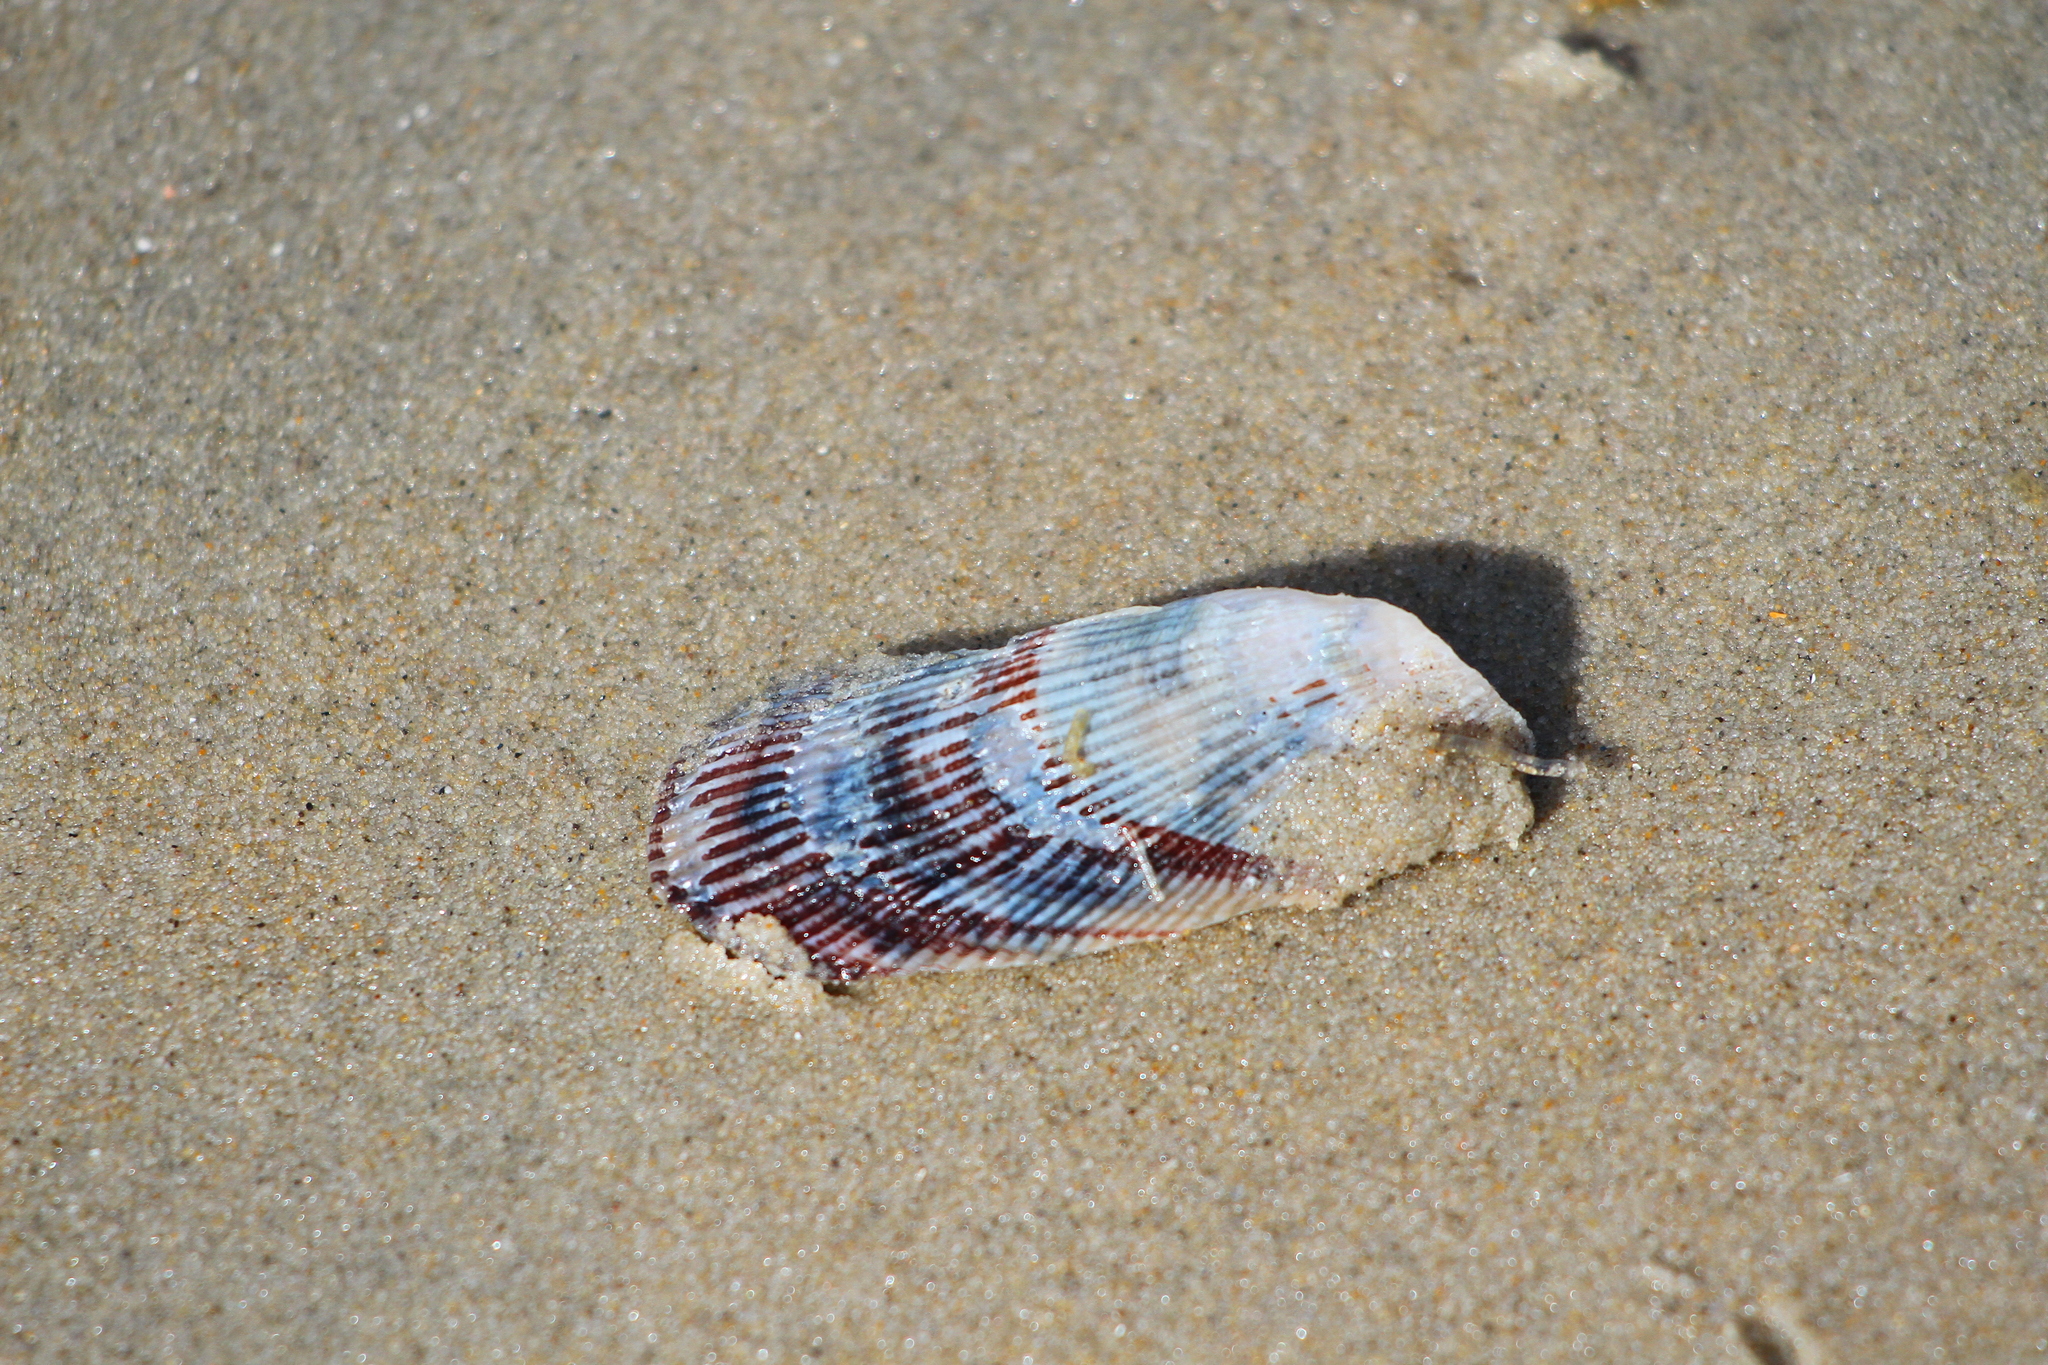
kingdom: Animalia
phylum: Mollusca
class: Bivalvia
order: Mytilida
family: Mytilidae
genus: Geukensia
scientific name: Geukensia demissa
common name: Ribbed mussel
